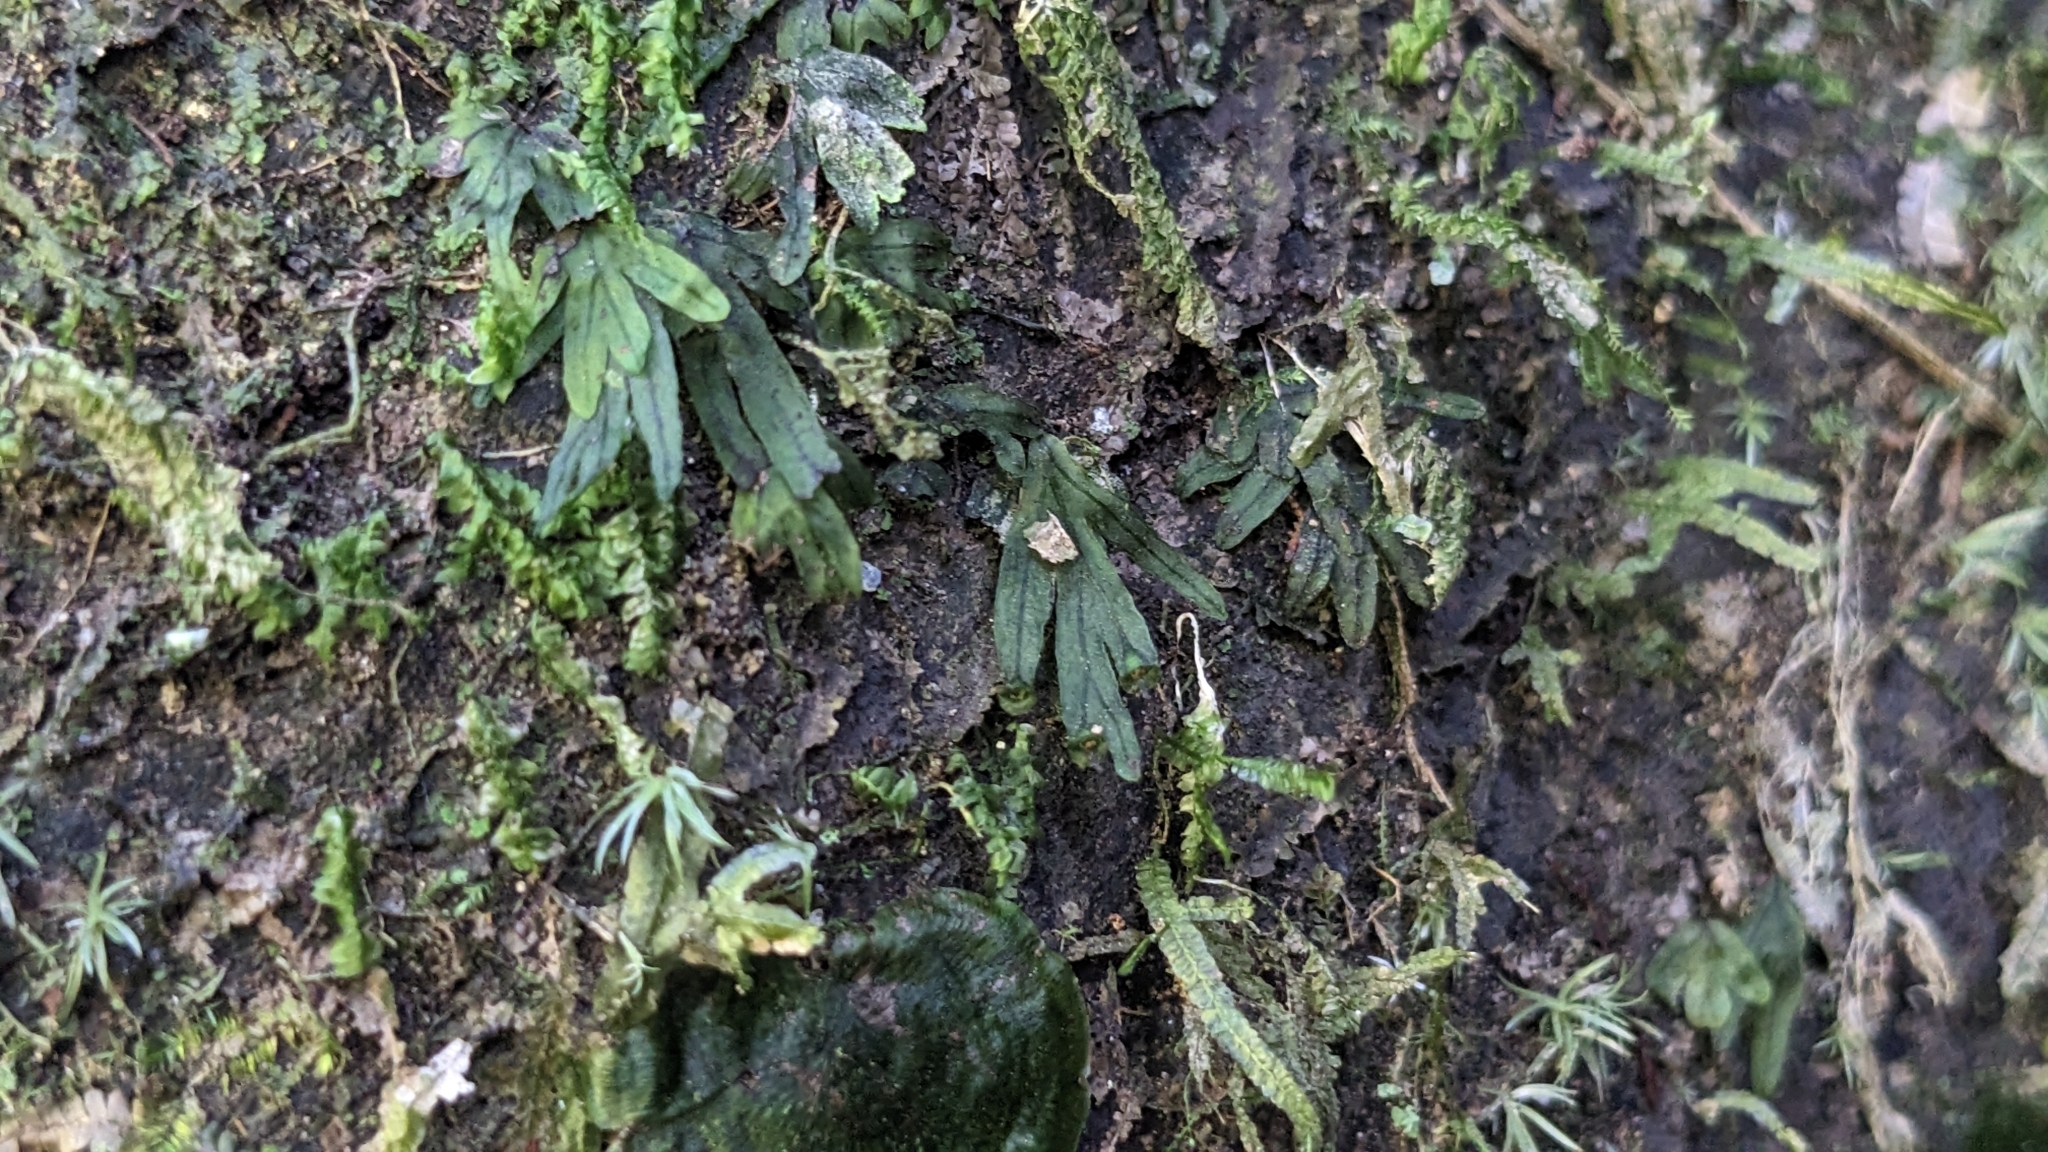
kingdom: Plantae
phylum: Tracheophyta
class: Polypodiopsida
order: Hymenophyllales
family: Hymenophyllaceae
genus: Crepidomanes
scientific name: Crepidomanes latemarginale
